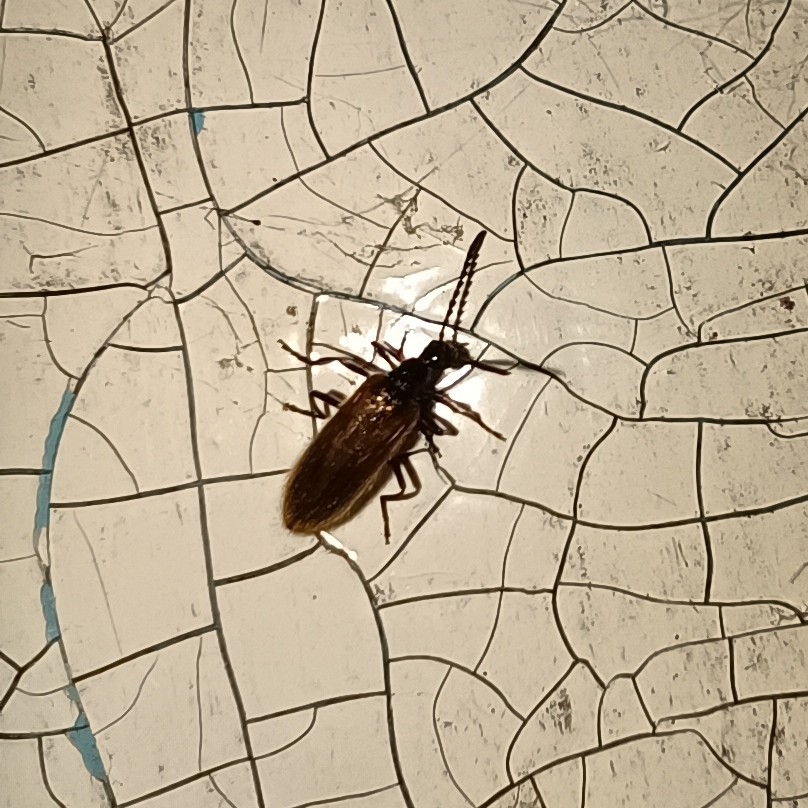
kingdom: Animalia
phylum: Arthropoda
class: Insecta
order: Coleoptera
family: Tenebrionidae
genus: Lagria
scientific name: Lagria hirta
